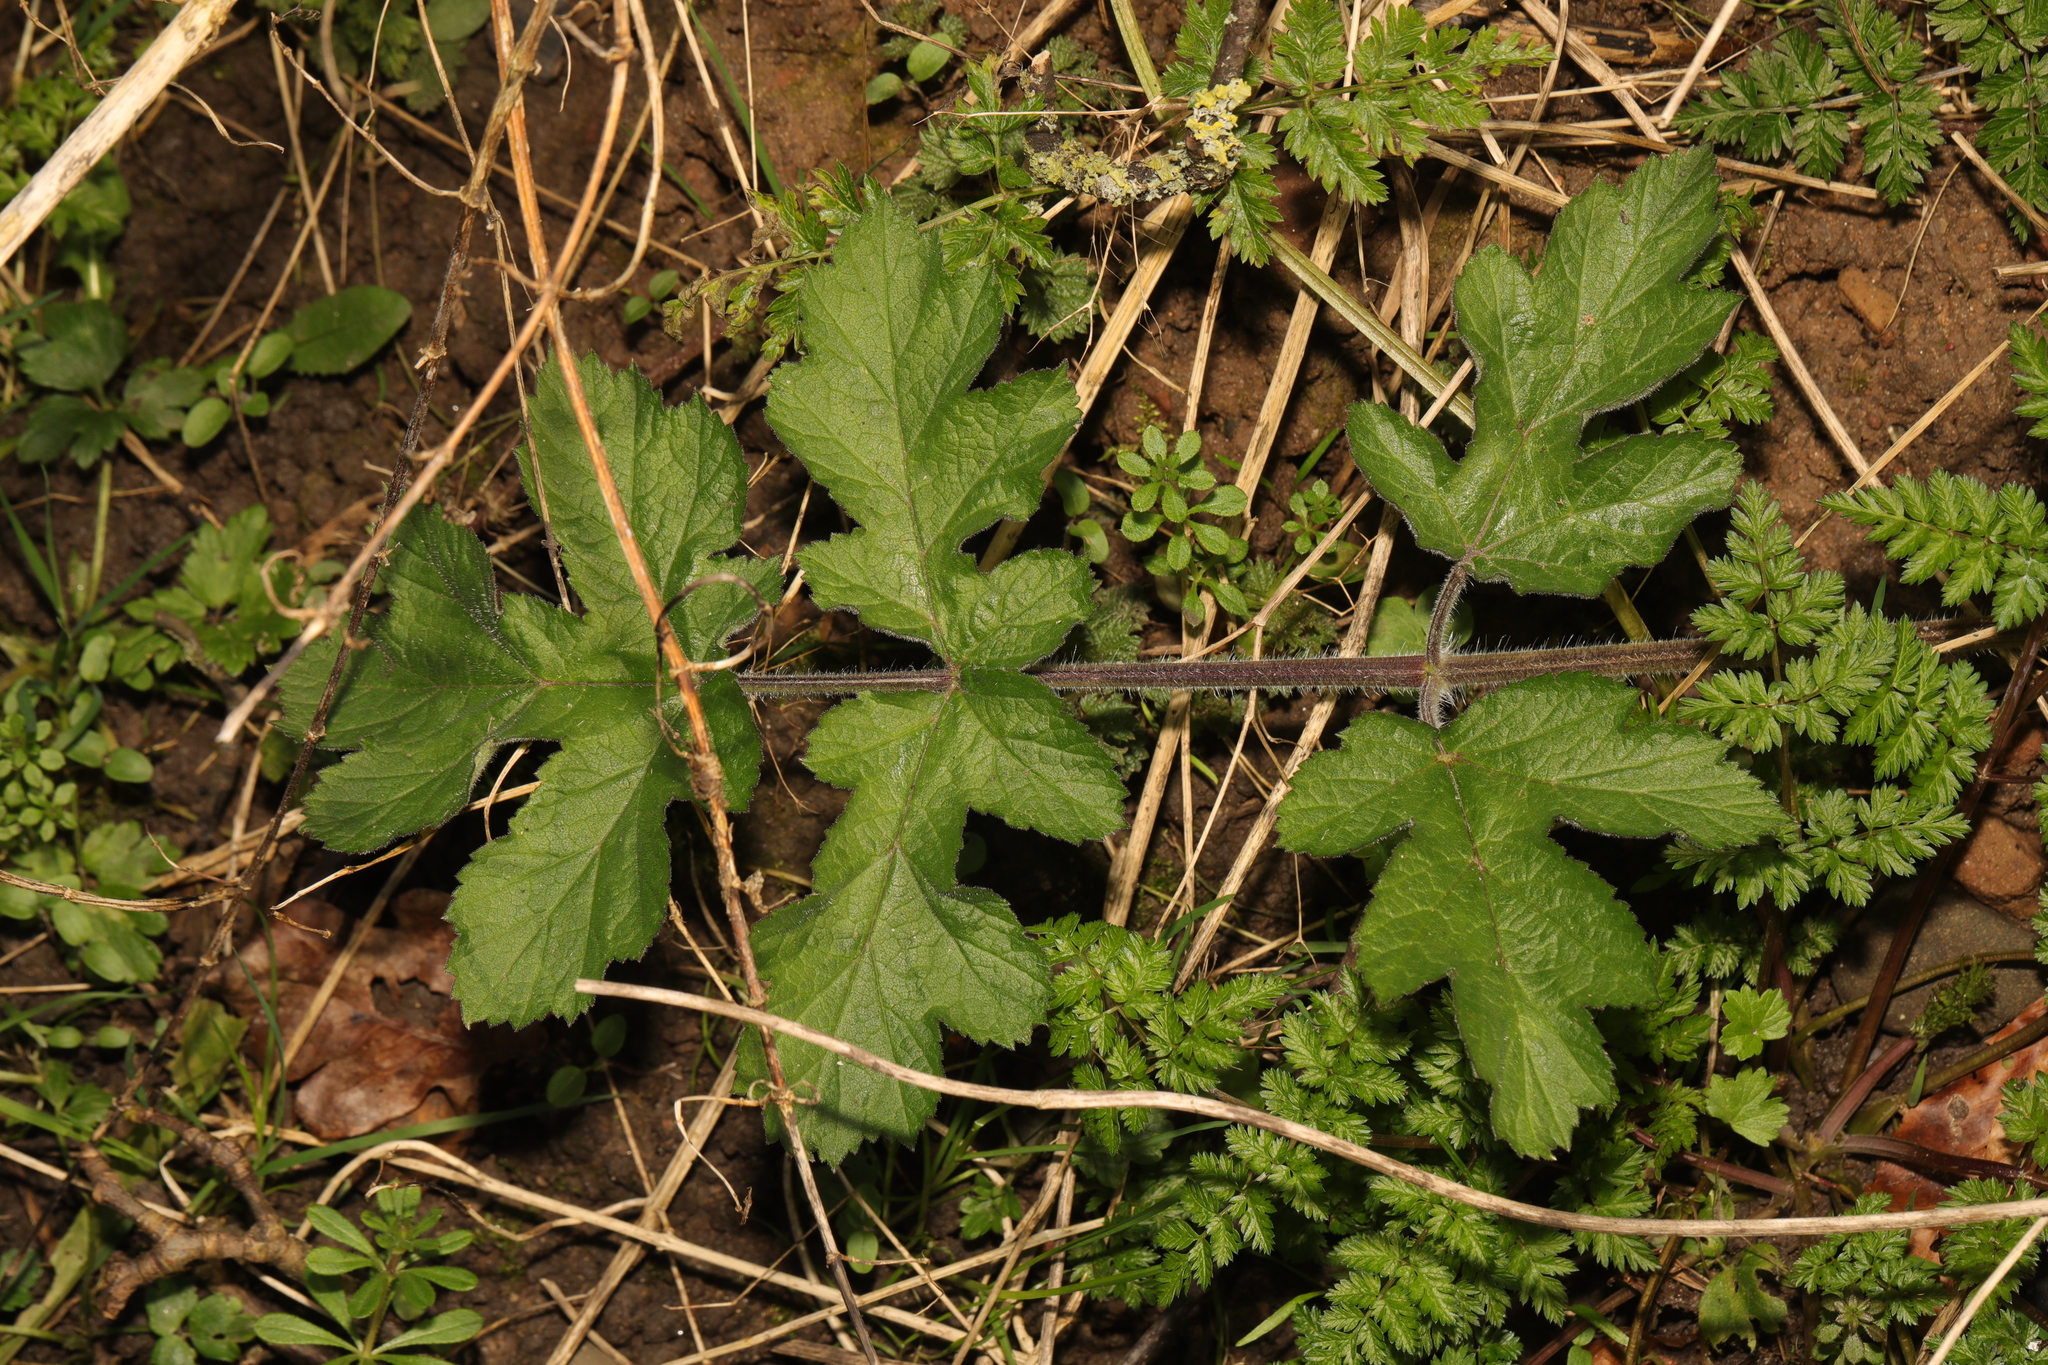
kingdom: Plantae
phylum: Tracheophyta
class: Magnoliopsida
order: Apiales
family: Apiaceae
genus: Heracleum
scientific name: Heracleum sphondylium
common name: Hogweed
